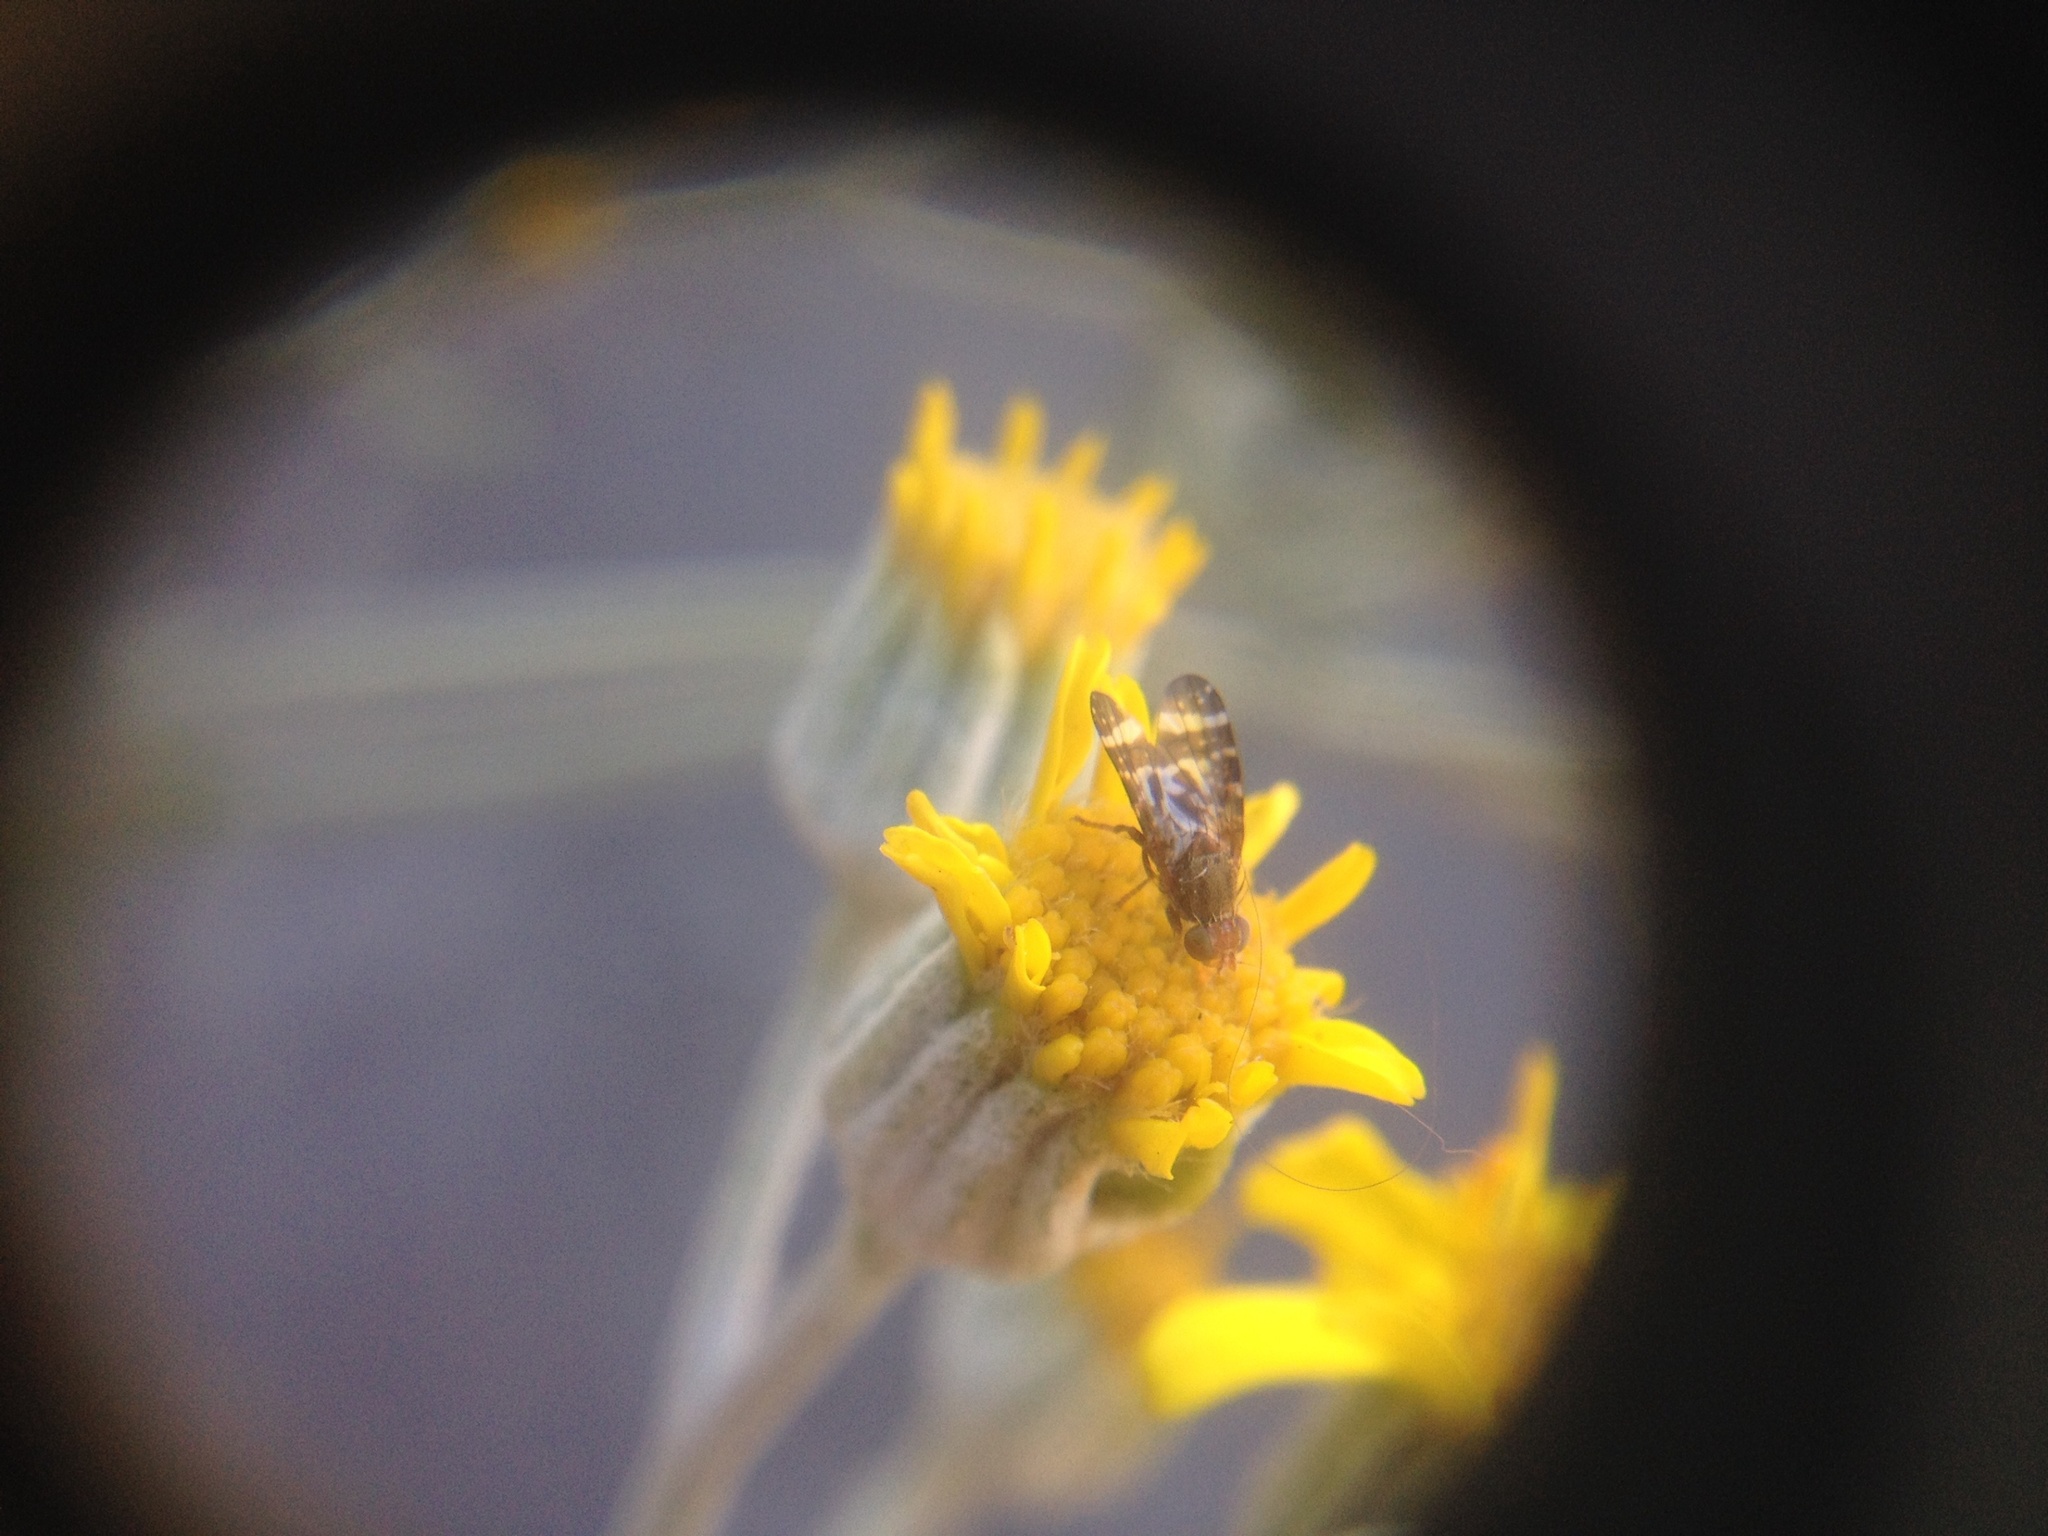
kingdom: Animalia
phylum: Arthropoda
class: Insecta
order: Diptera
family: Tephritidae
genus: Sphenella
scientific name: Sphenella
